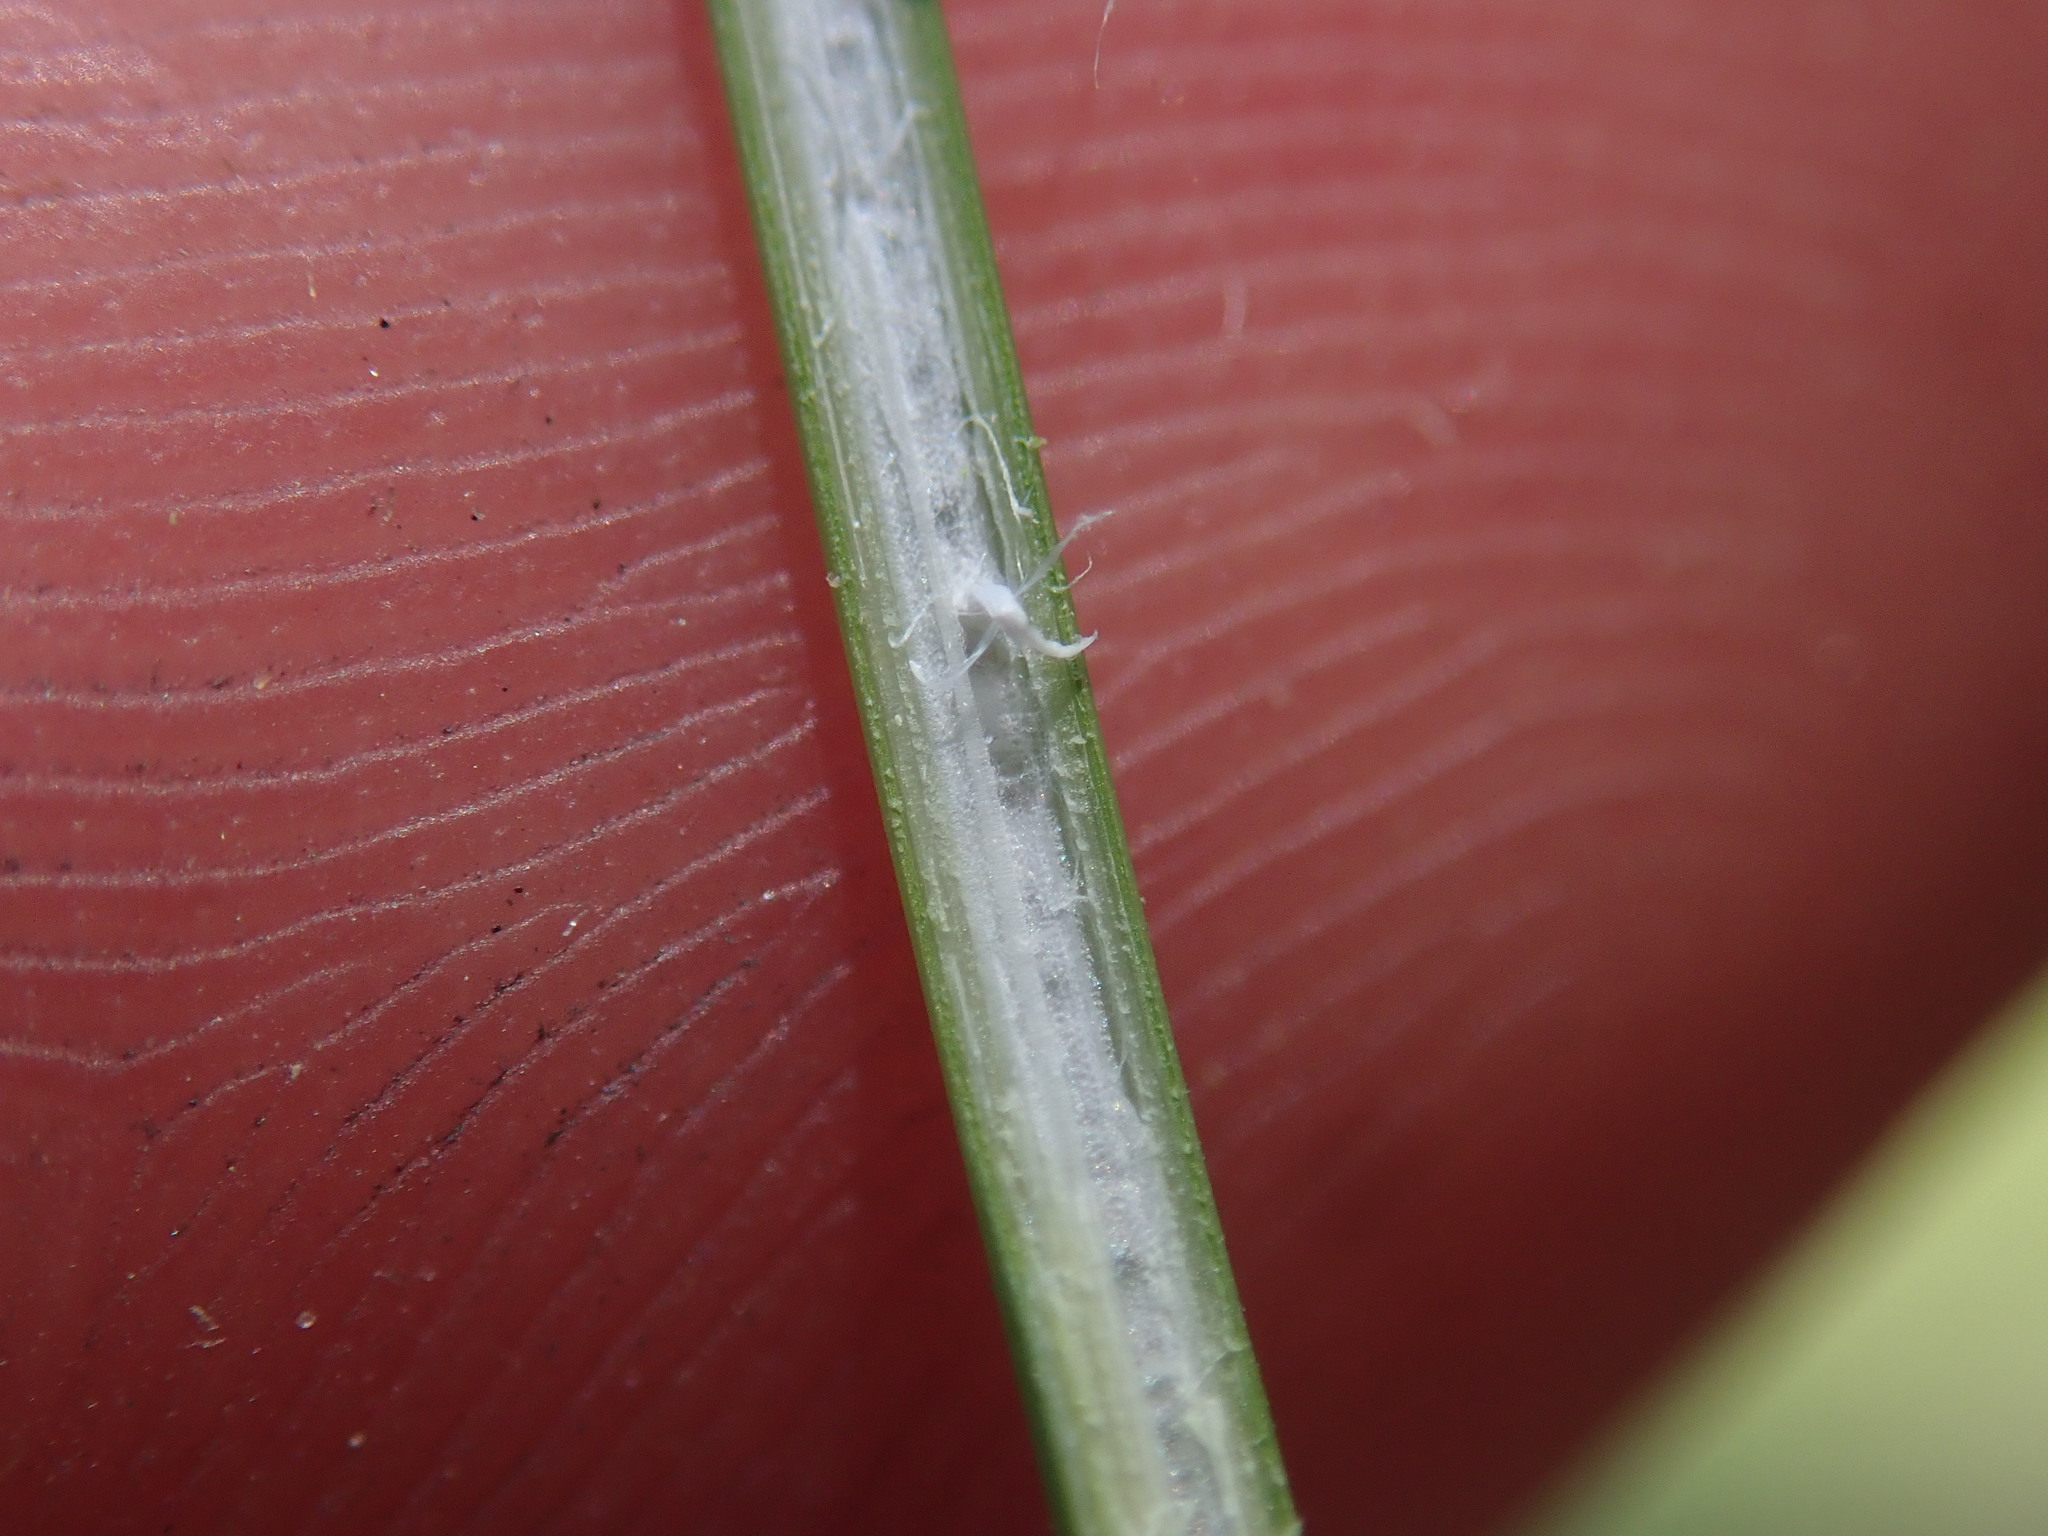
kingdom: Plantae
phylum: Tracheophyta
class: Liliopsida
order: Poales
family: Juncaceae
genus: Juncus
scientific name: Juncus inflexus
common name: Hard rush
